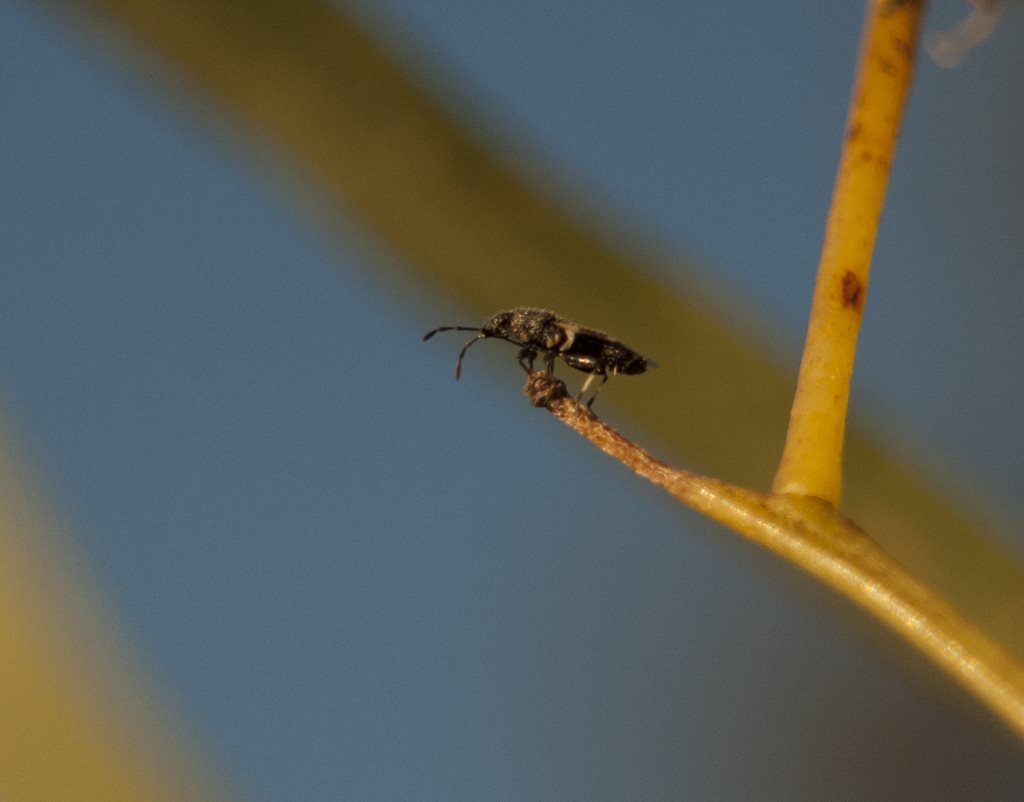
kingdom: Animalia
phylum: Arthropoda
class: Insecta
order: Hemiptera
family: Oxycarenidae
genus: Oxycarenus
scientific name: Oxycarenus luctuosus
